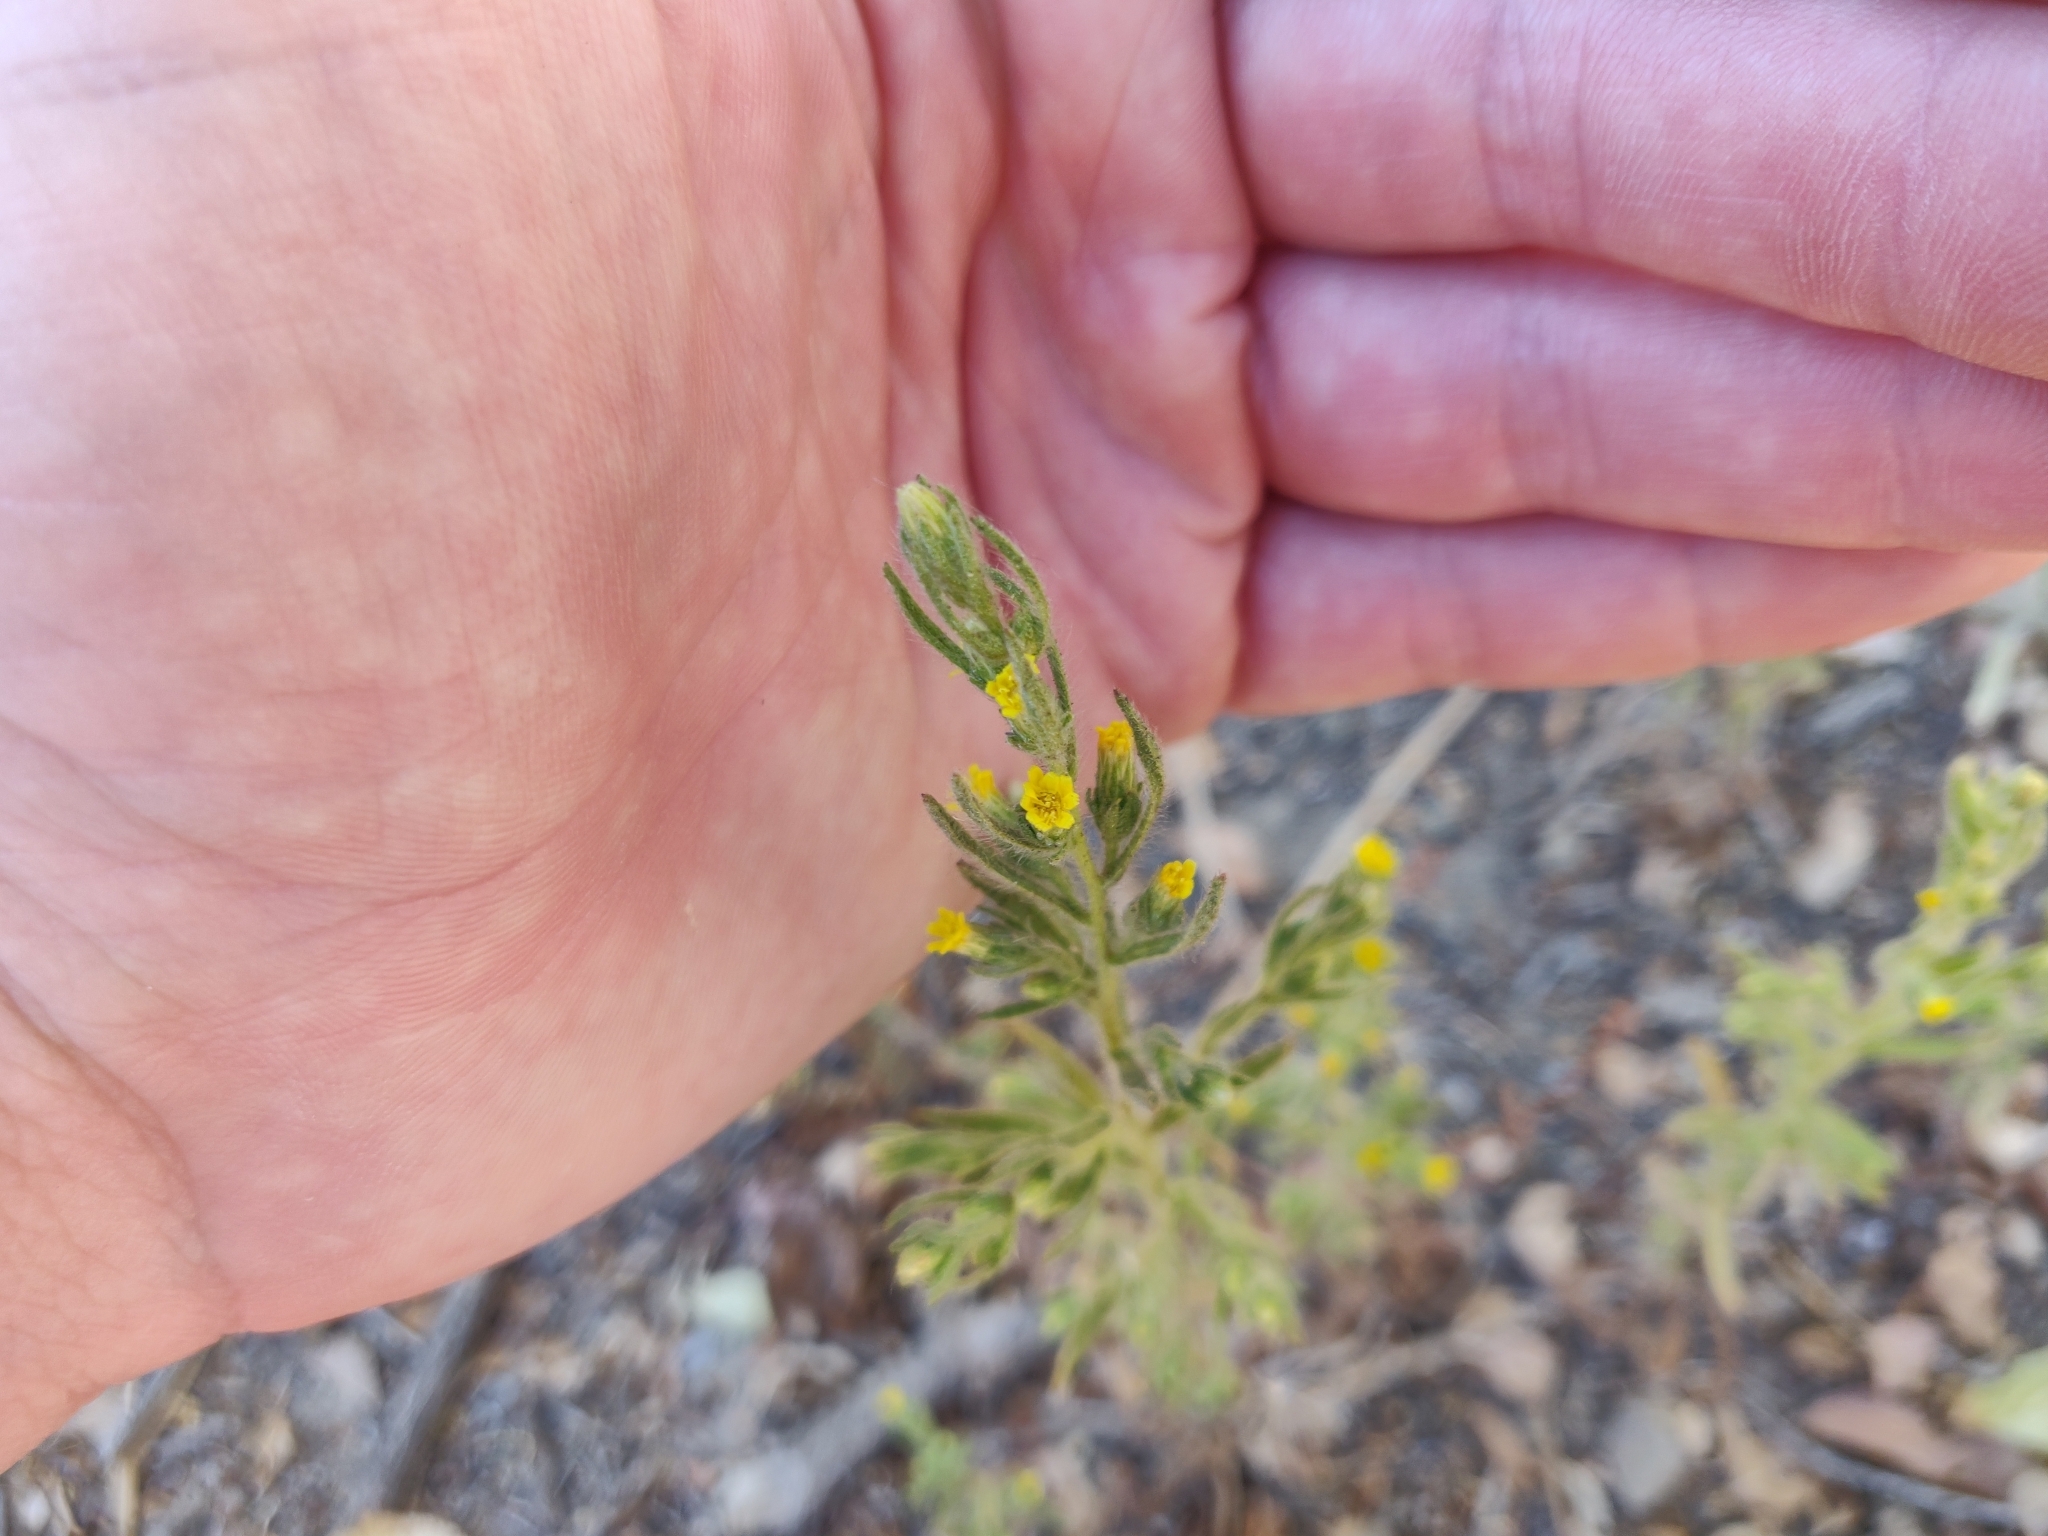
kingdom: Plantae
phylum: Tracheophyta
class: Magnoliopsida
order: Asterales
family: Asteraceae
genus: Dittrichia
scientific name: Dittrichia graveolens
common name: Stinking fleabane
